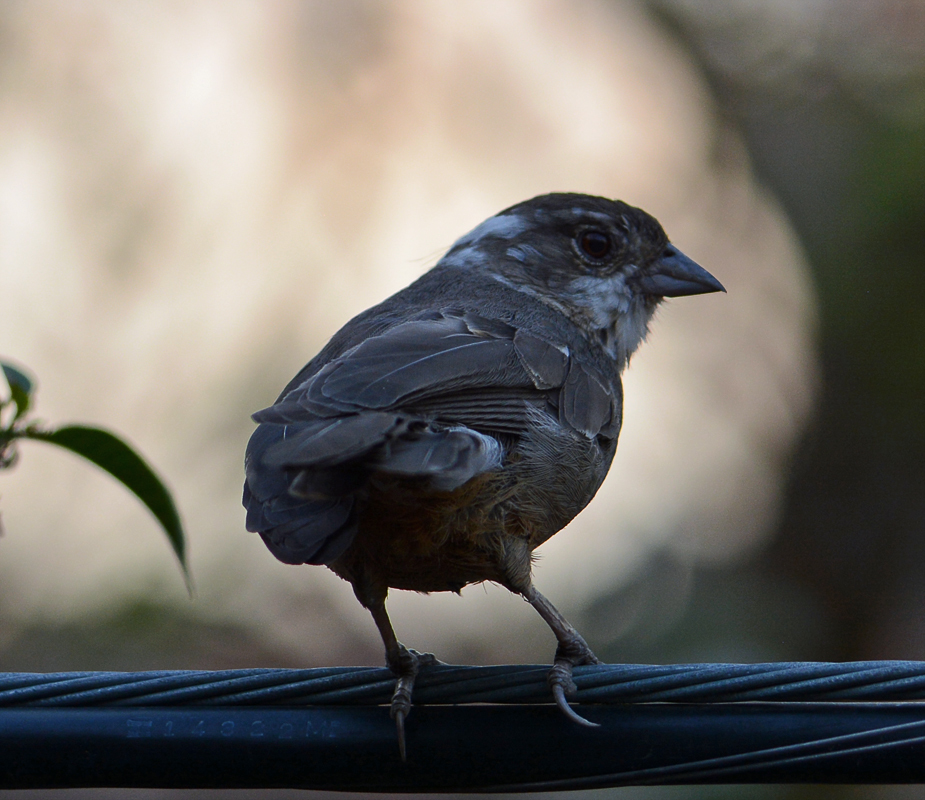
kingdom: Animalia
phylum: Chordata
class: Aves
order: Passeriformes
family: Passerellidae
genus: Melozone
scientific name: Melozone fusca
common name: Canyon towhee
